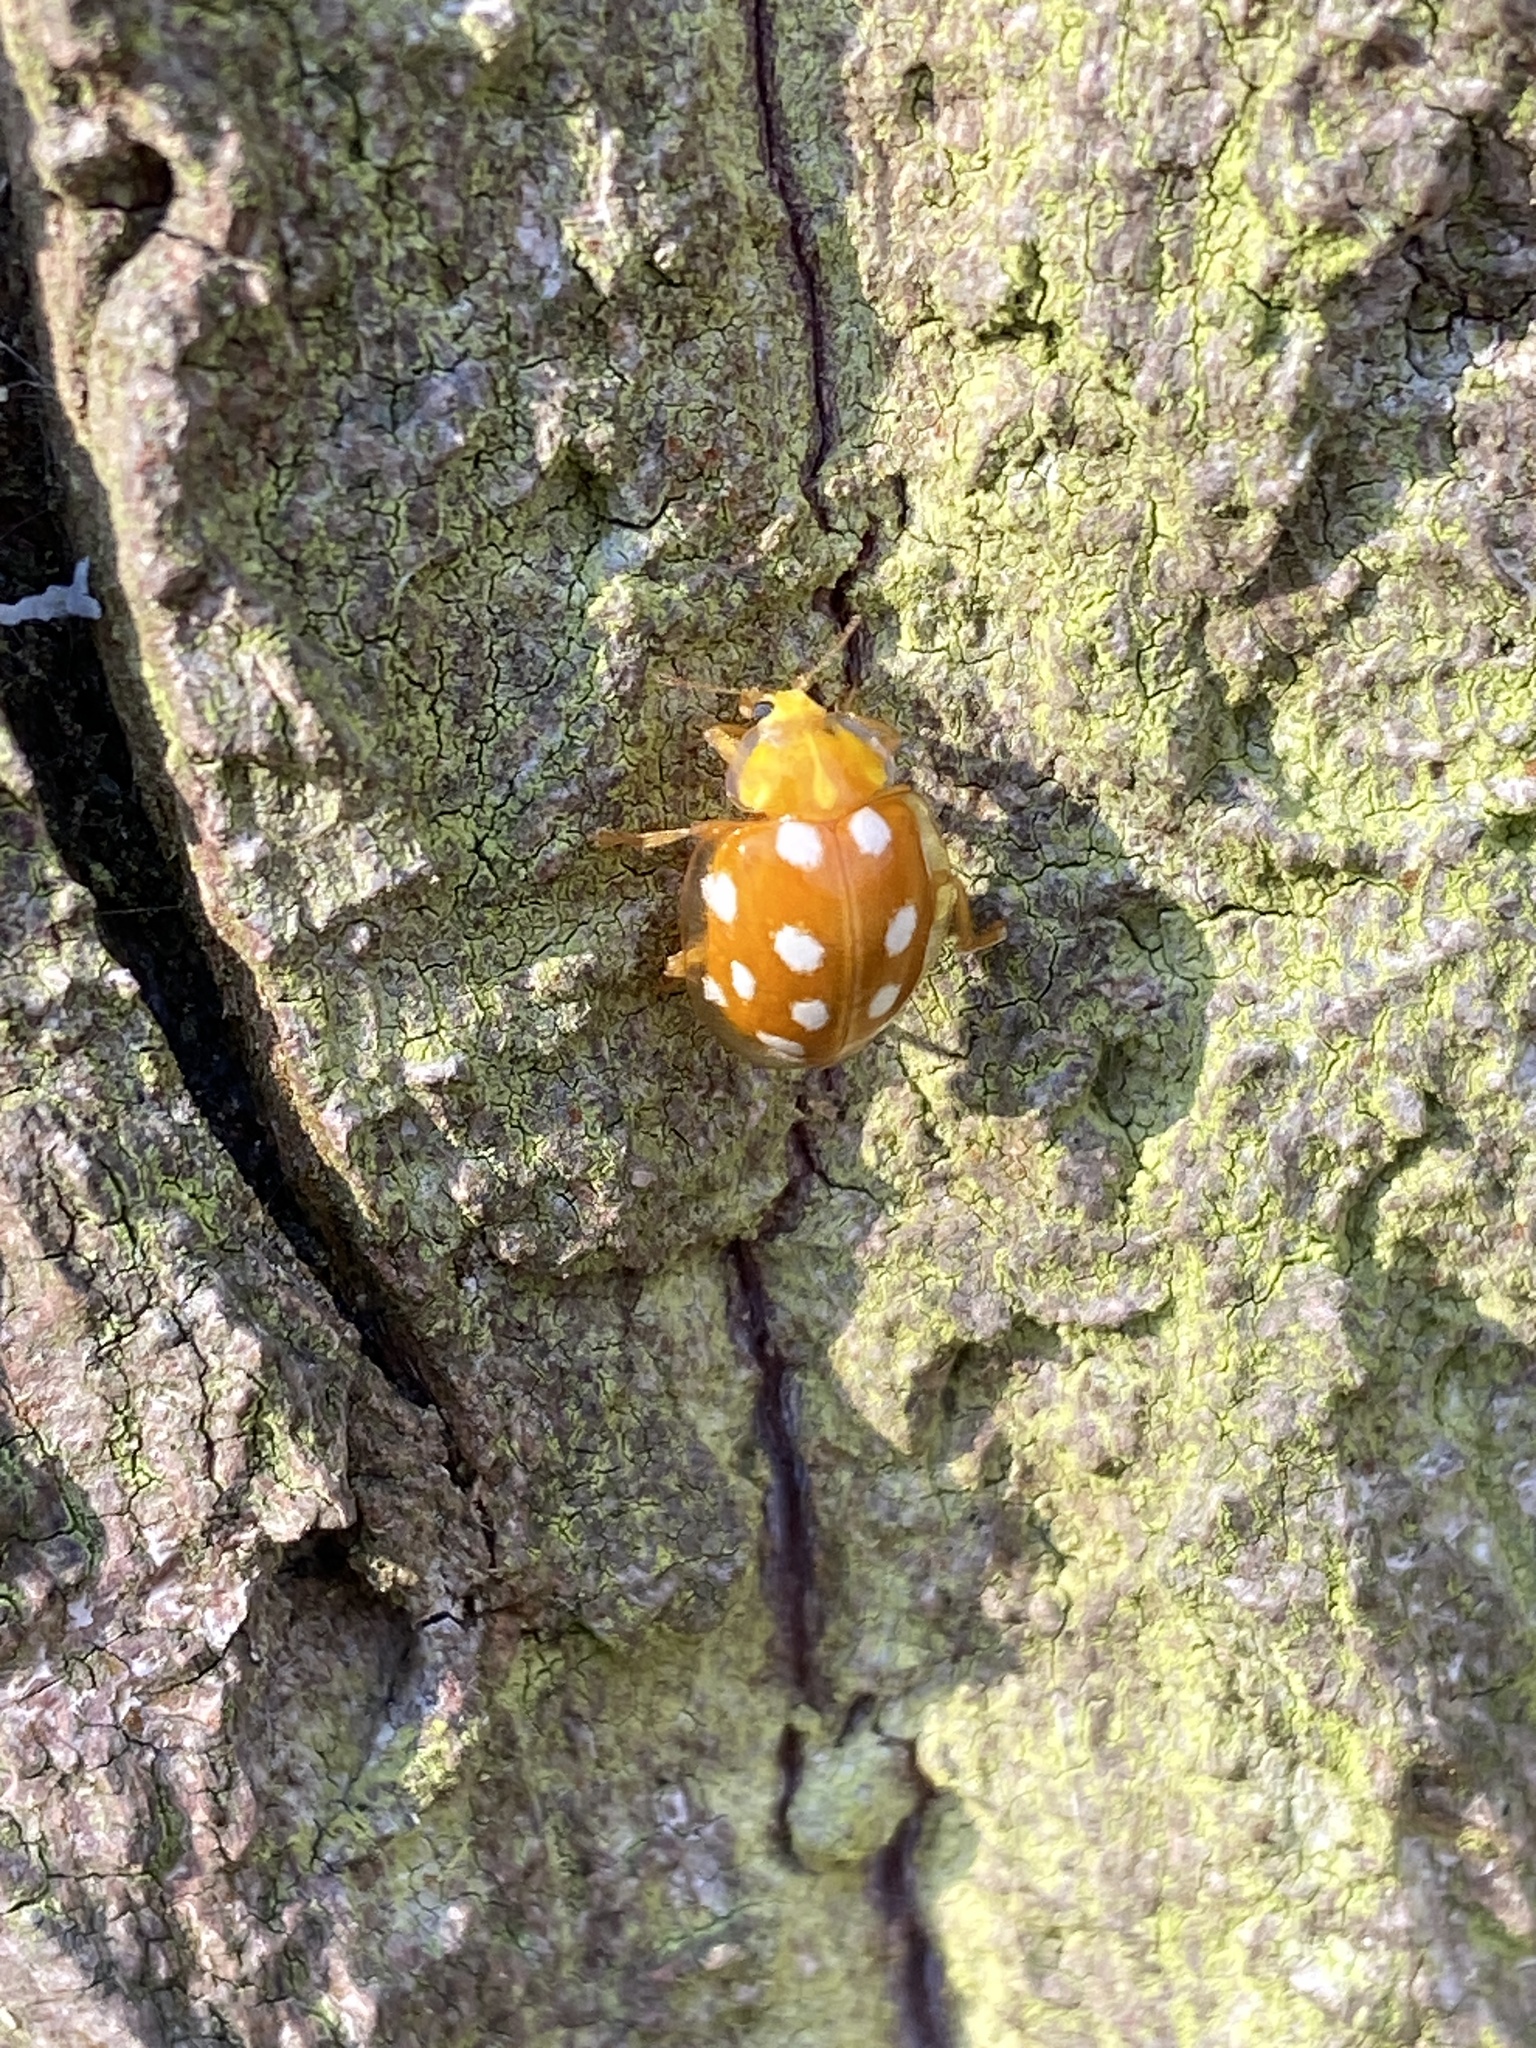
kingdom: Animalia
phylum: Arthropoda
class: Insecta
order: Coleoptera
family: Coccinellidae
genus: Halyzia
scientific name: Halyzia sedecimguttata
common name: Orange ladybird
